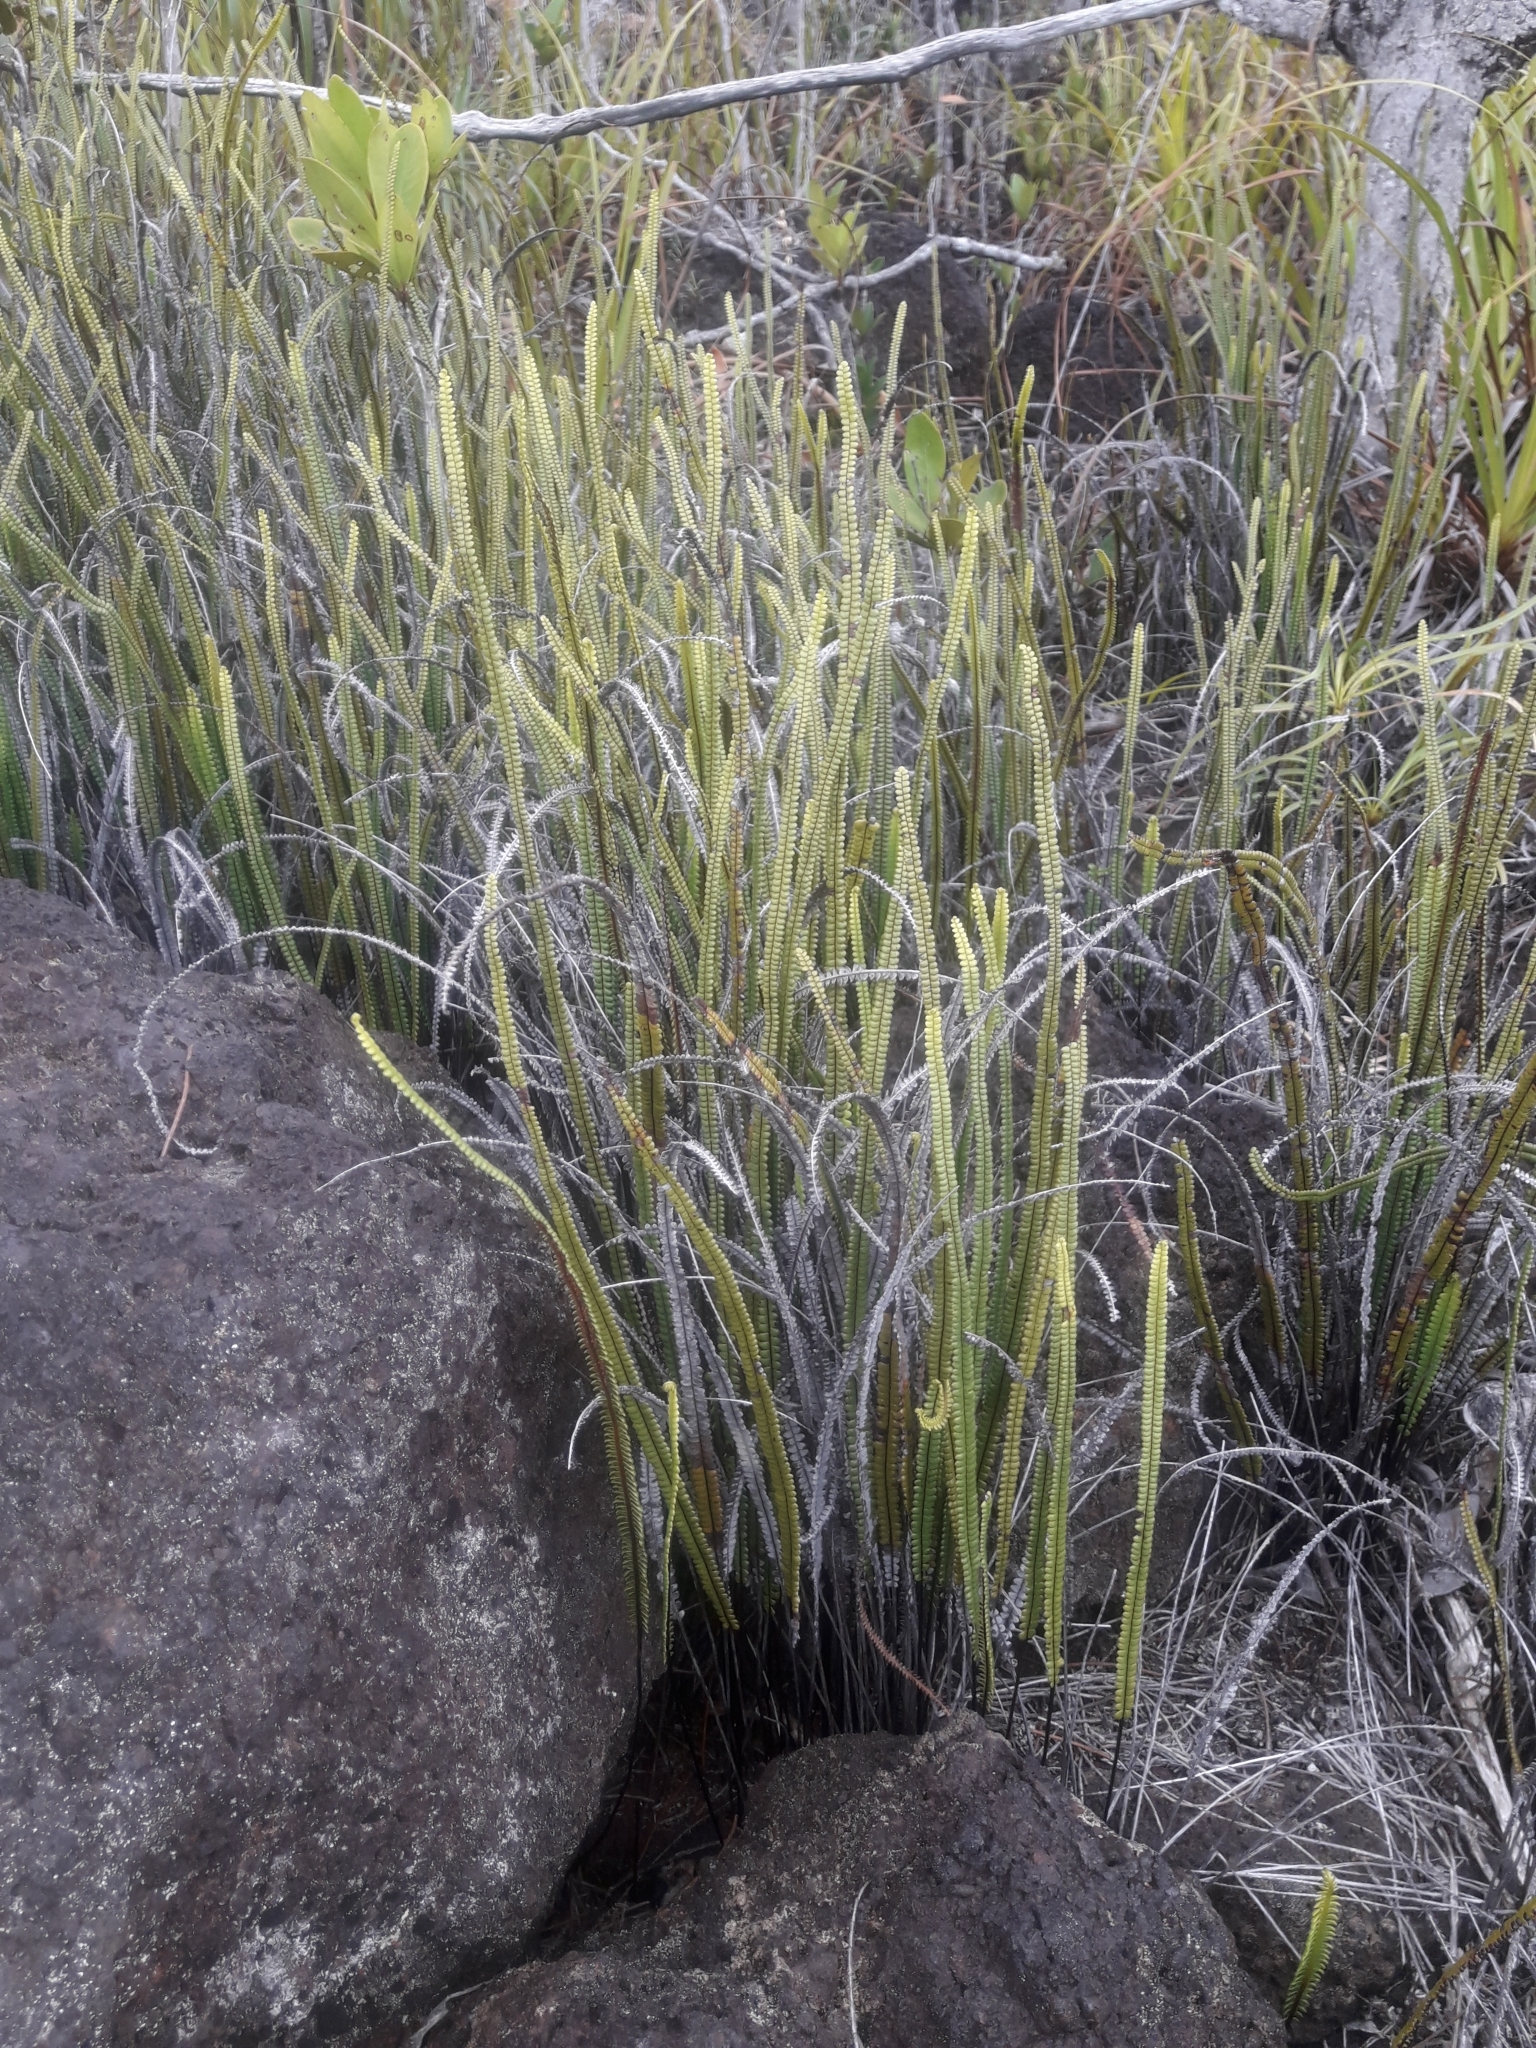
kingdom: Plantae
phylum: Tracheophyta
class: Polypodiopsida
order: Gleicheniales
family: Gleicheniaceae
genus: Stromatopteris
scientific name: Stromatopteris moniliformis
